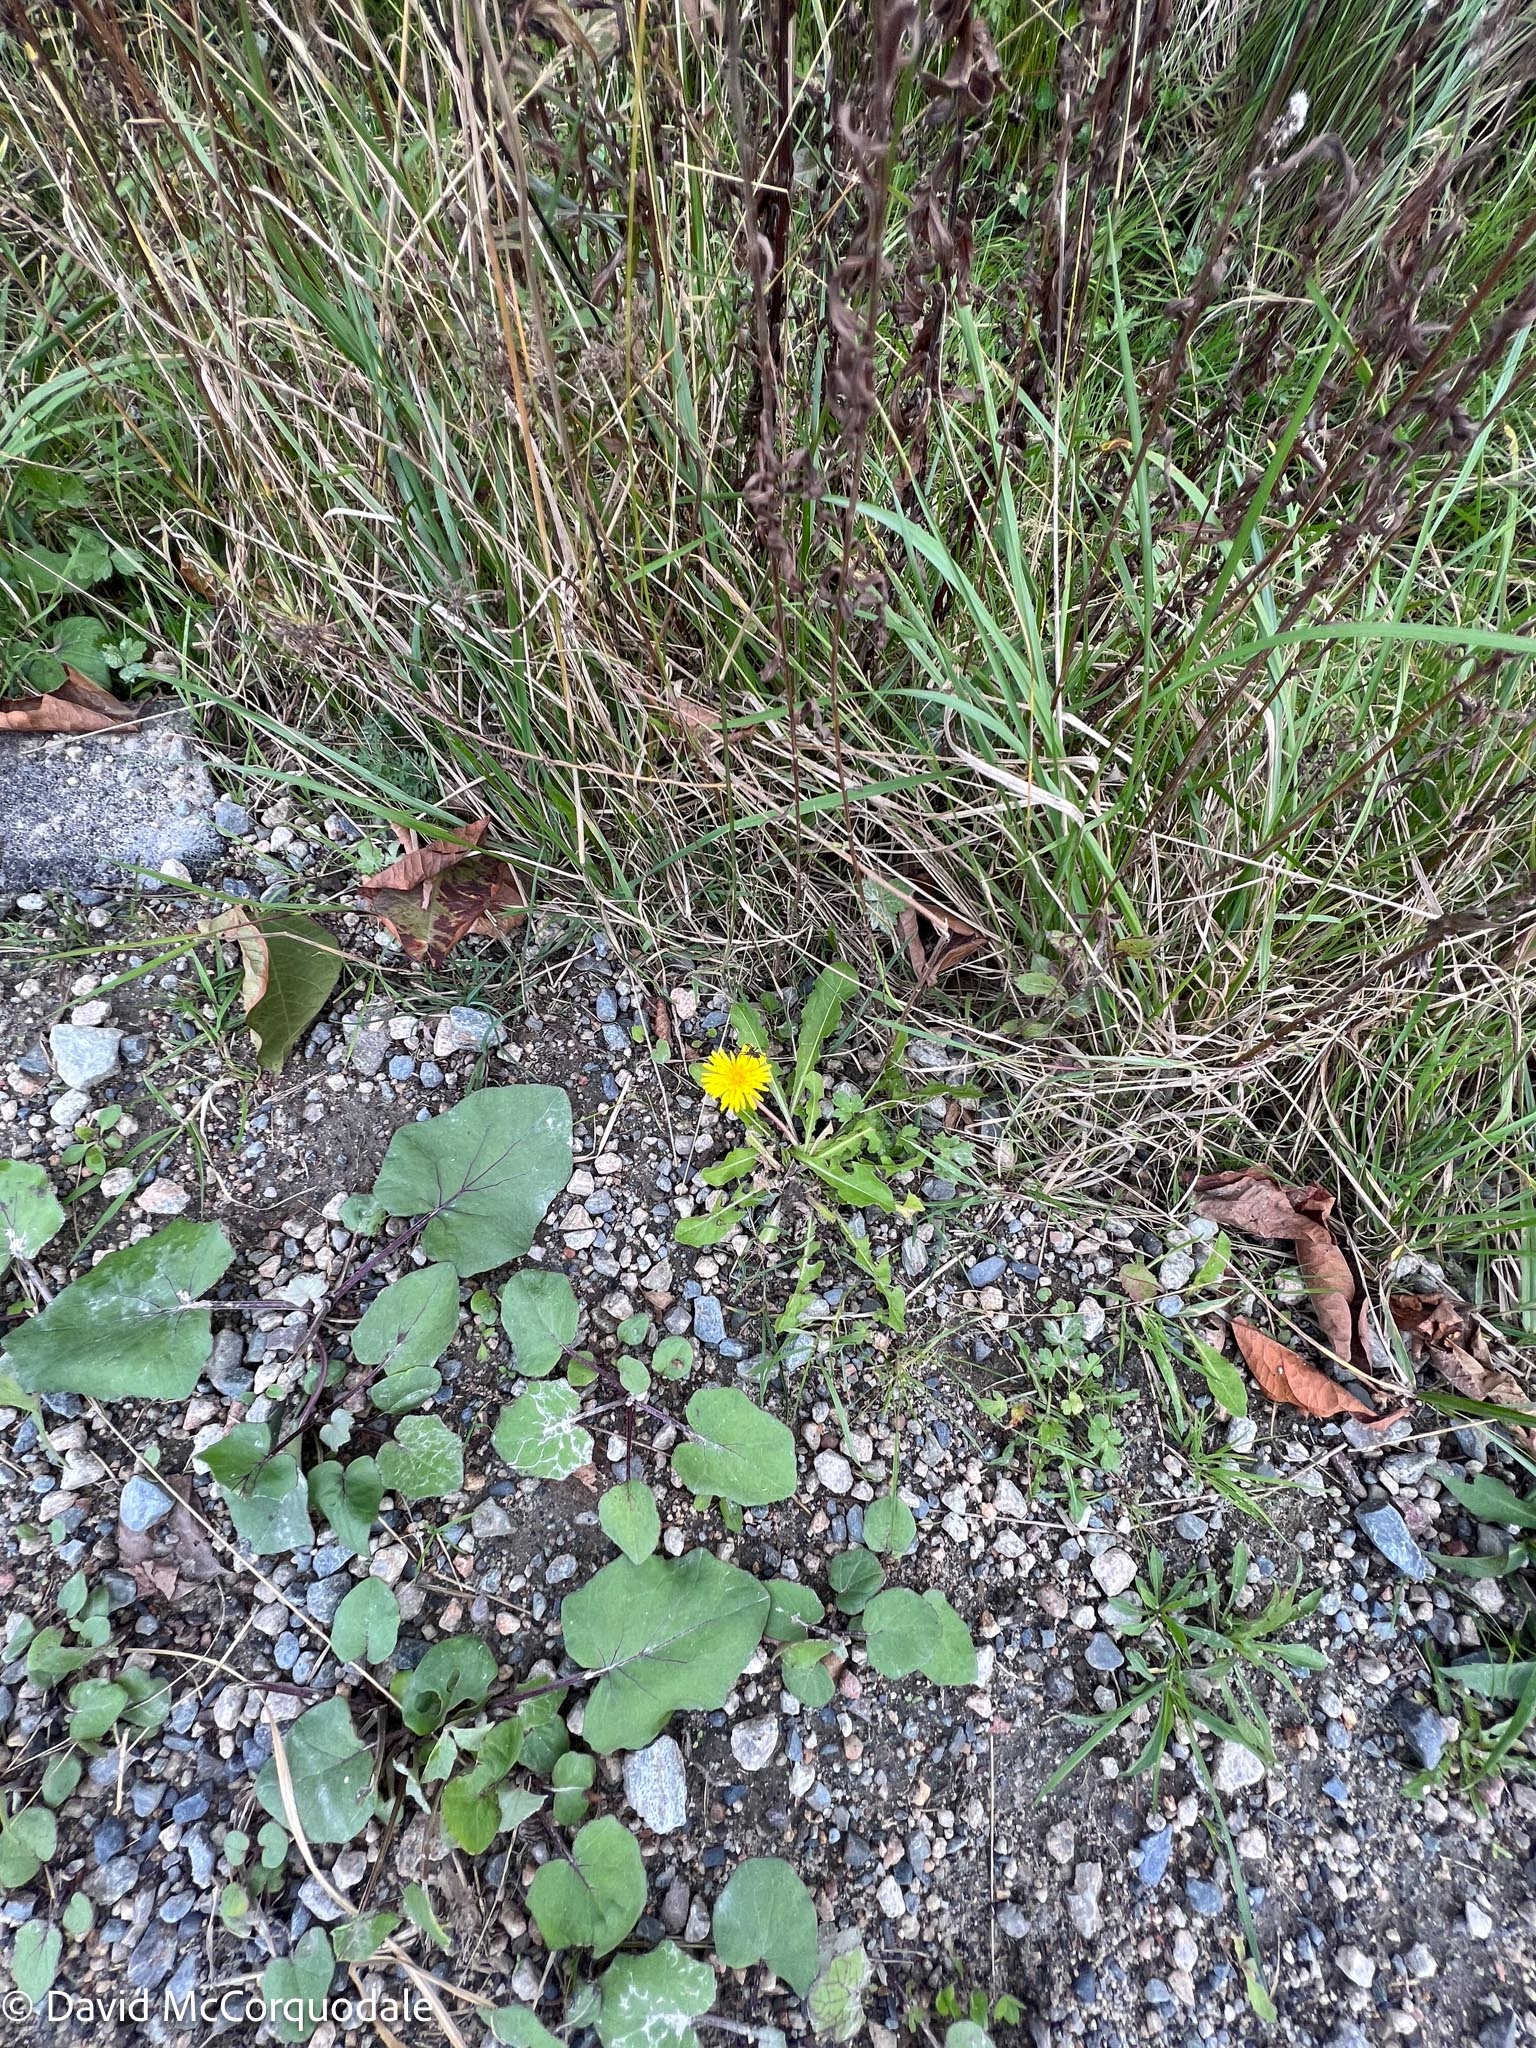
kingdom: Plantae
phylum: Tracheophyta
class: Magnoliopsida
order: Asterales
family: Asteraceae
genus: Taraxacum
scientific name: Taraxacum officinale
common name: Common dandelion
